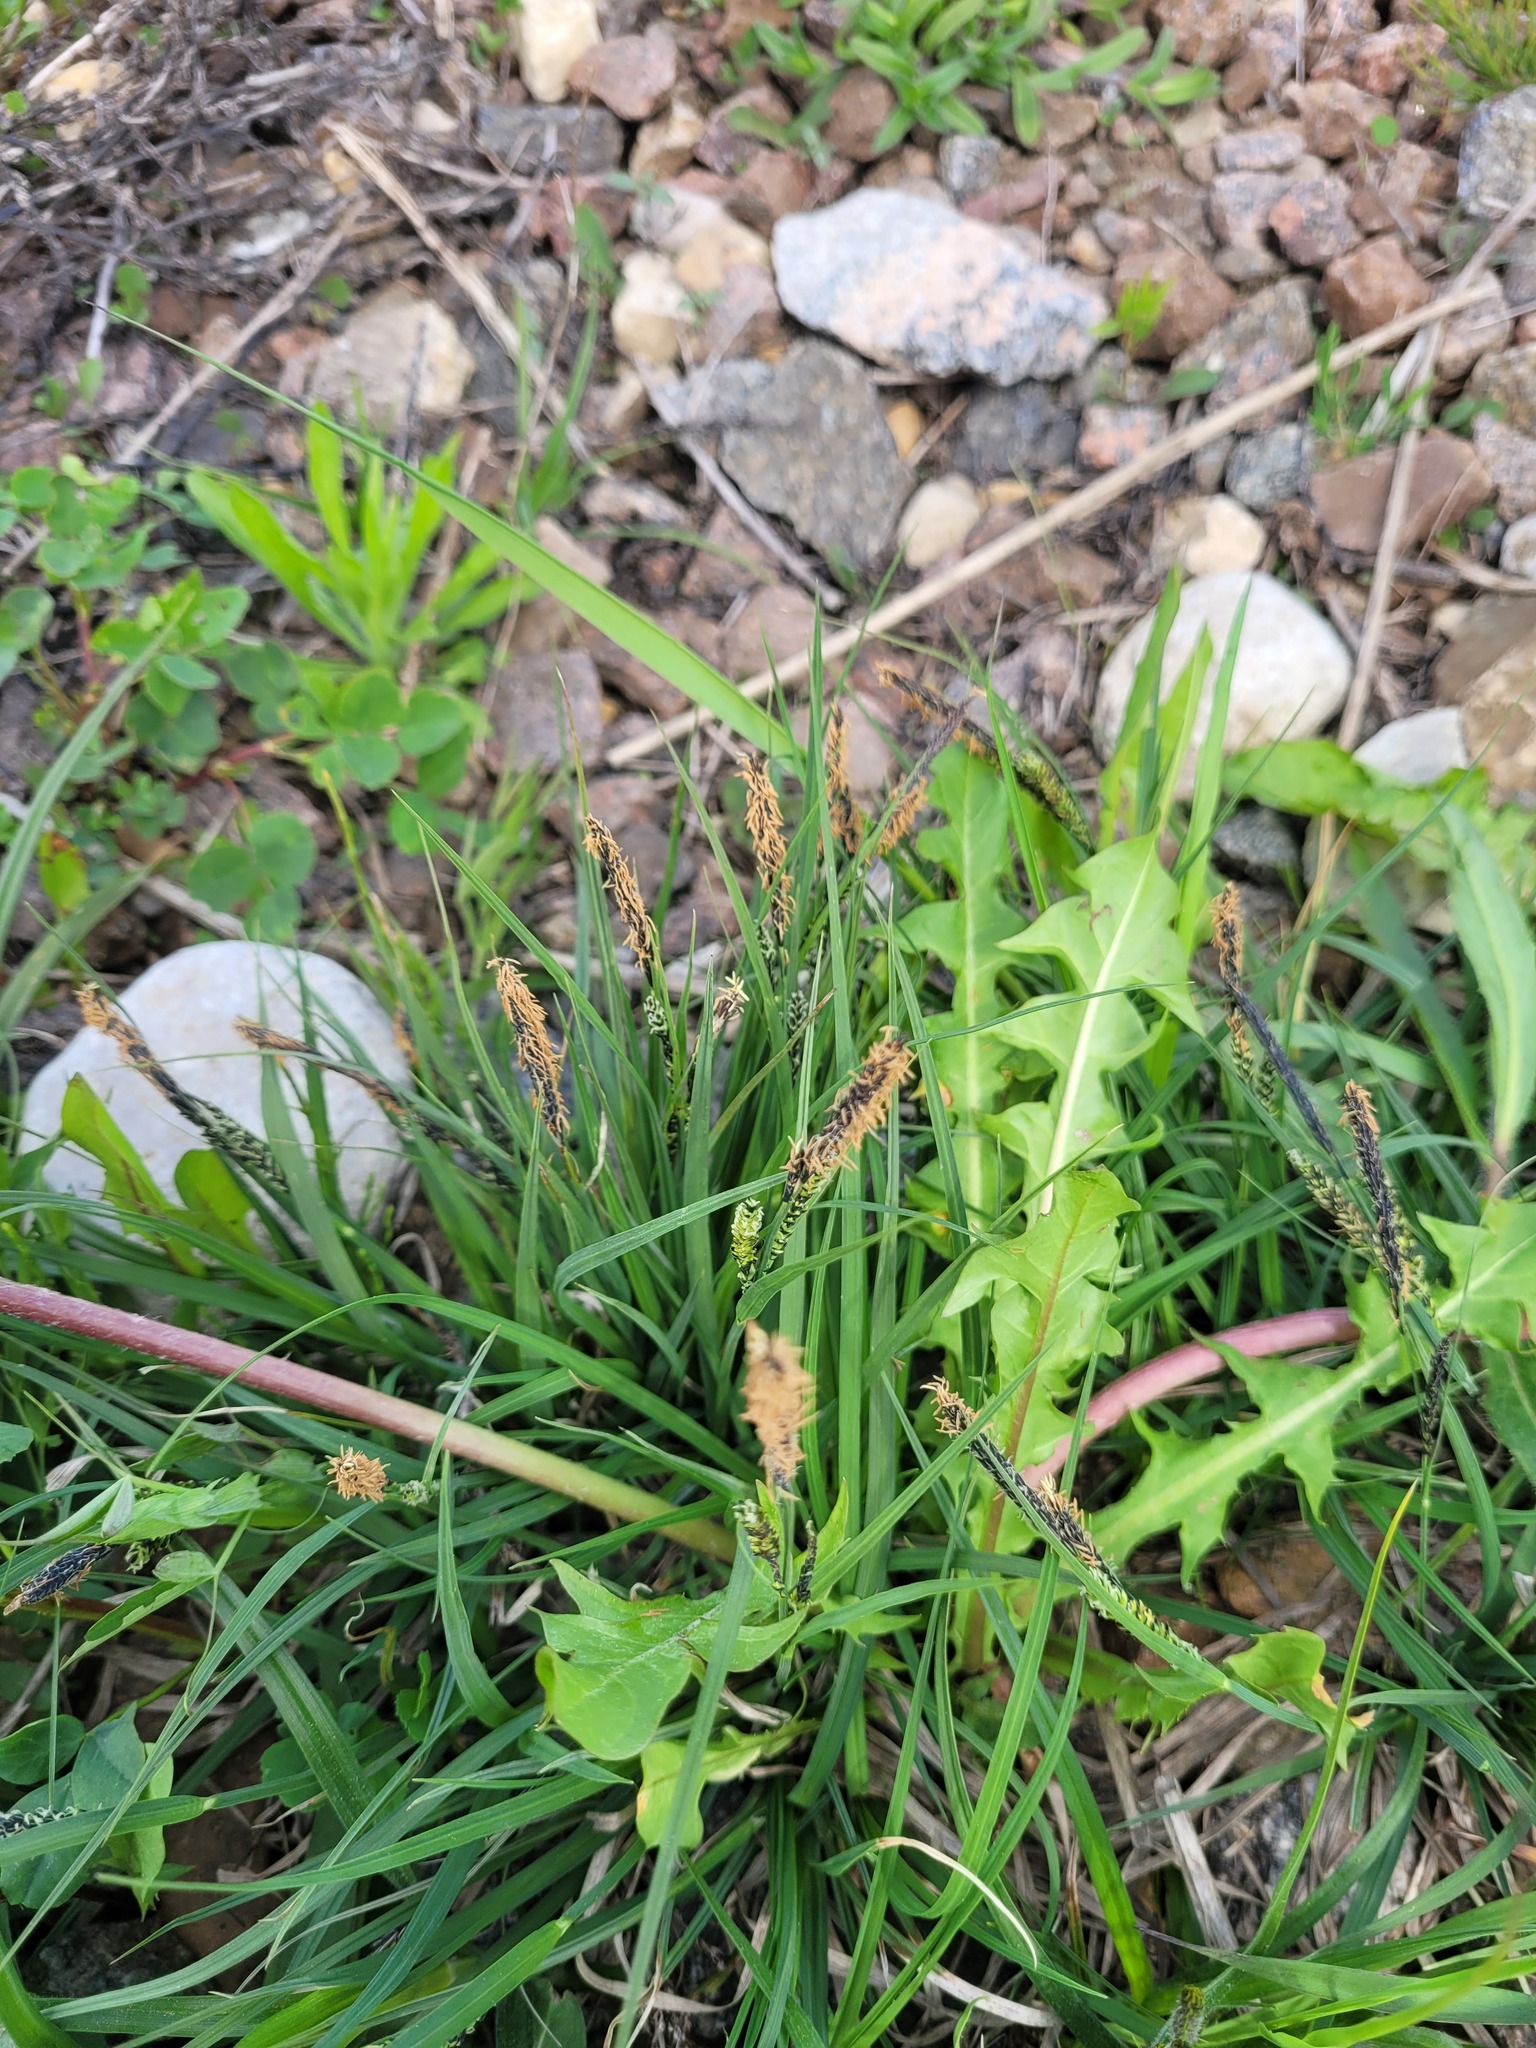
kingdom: Plantae
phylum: Tracheophyta
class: Liliopsida
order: Poales
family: Cyperaceae
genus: Carex
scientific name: Carex nigra
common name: Common sedge
